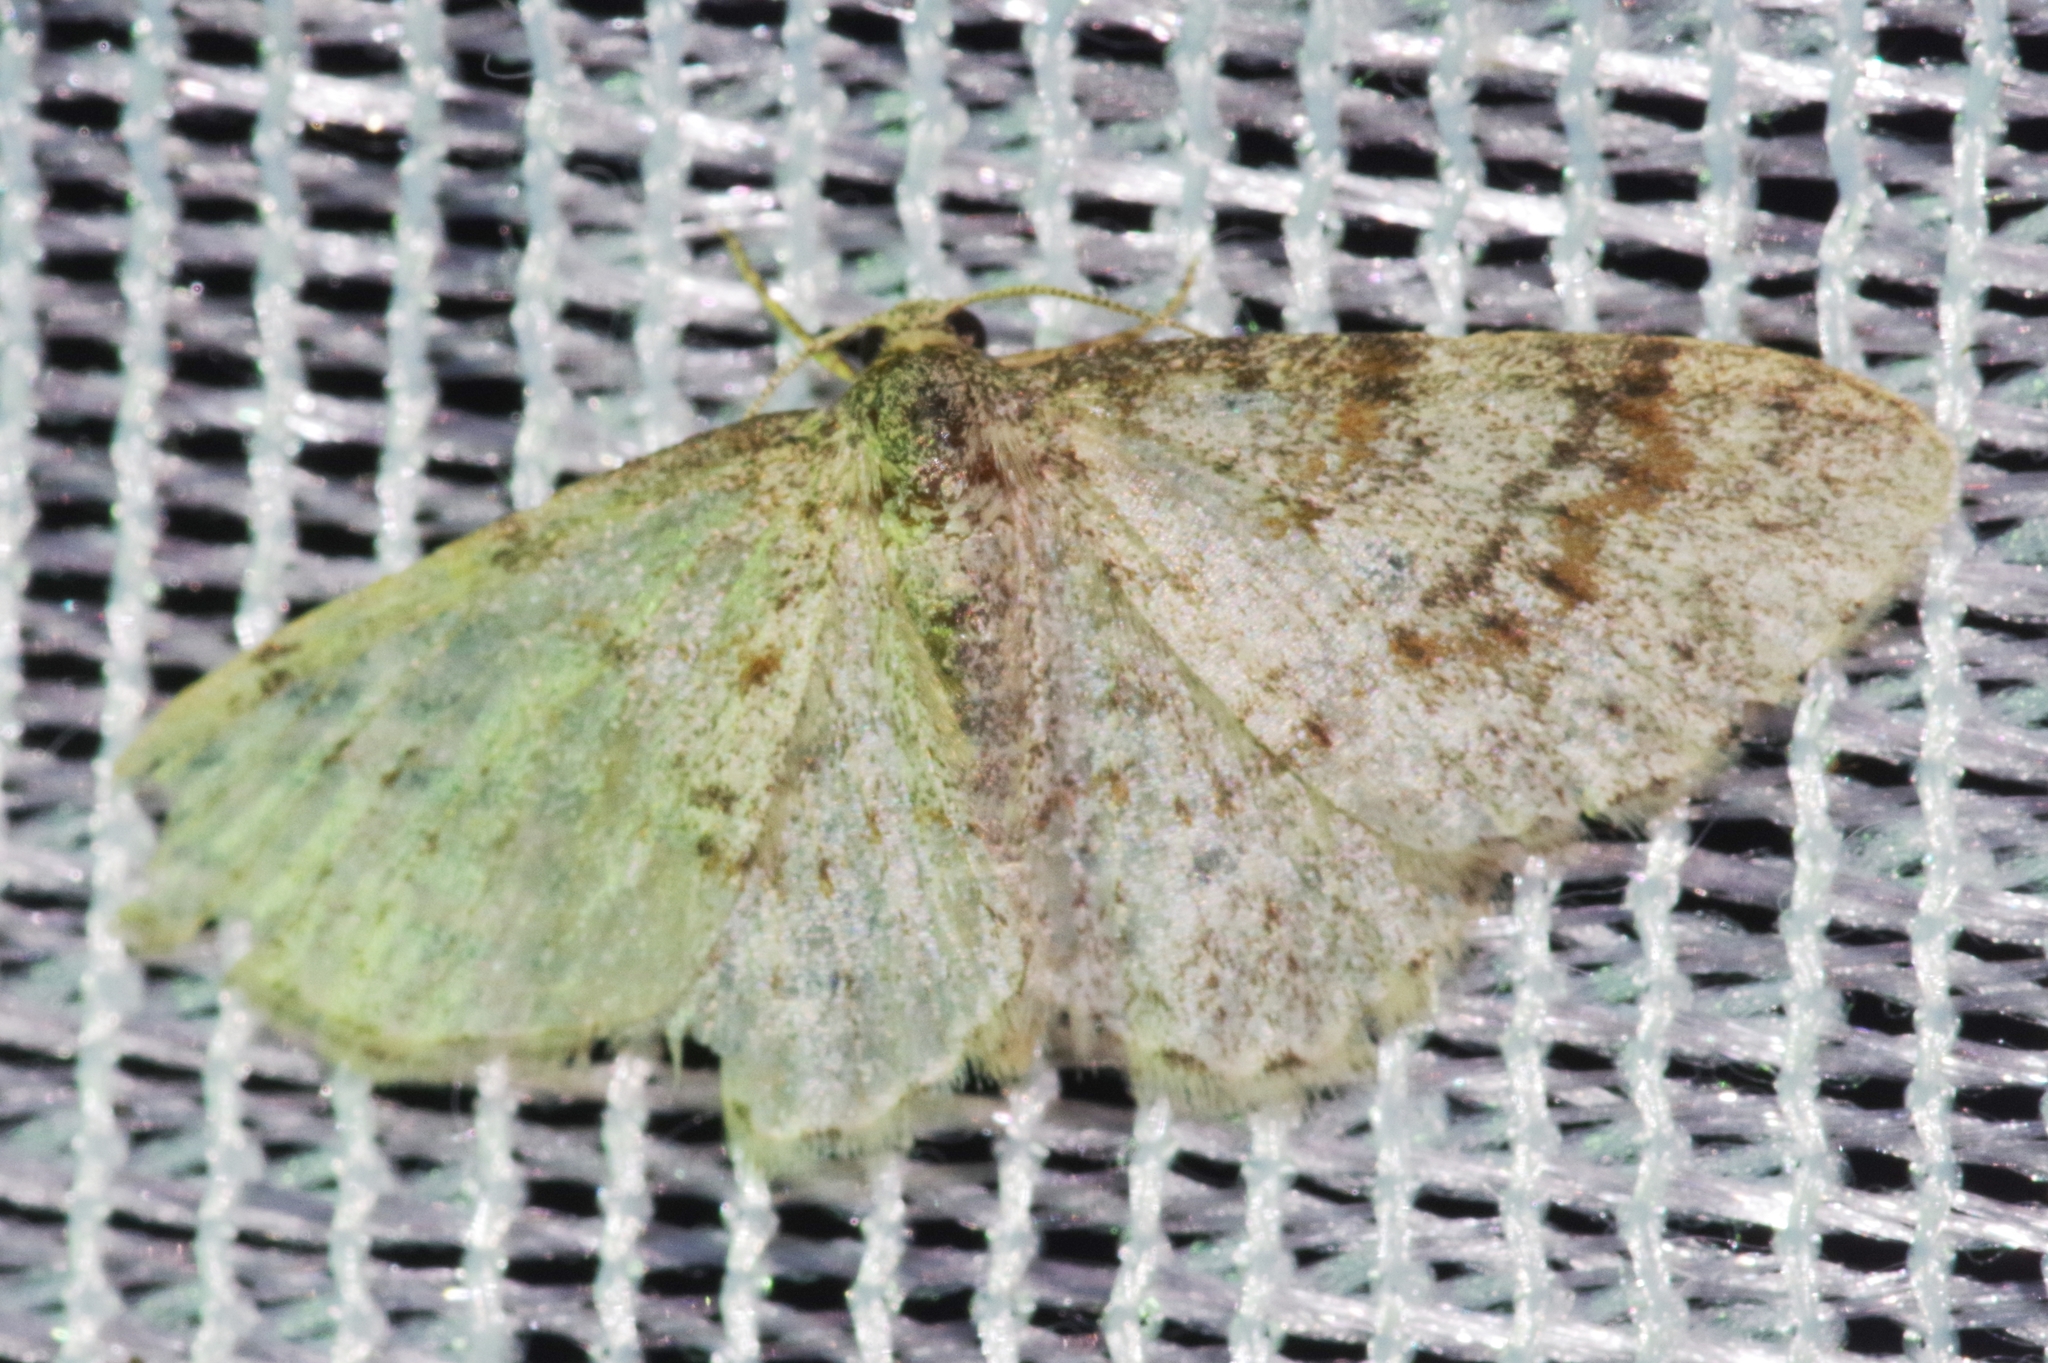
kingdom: Animalia
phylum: Arthropoda
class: Insecta
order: Lepidoptera
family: Geometridae
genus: Hydrelia
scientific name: Hydrelia sylvata
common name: Waved carpet
